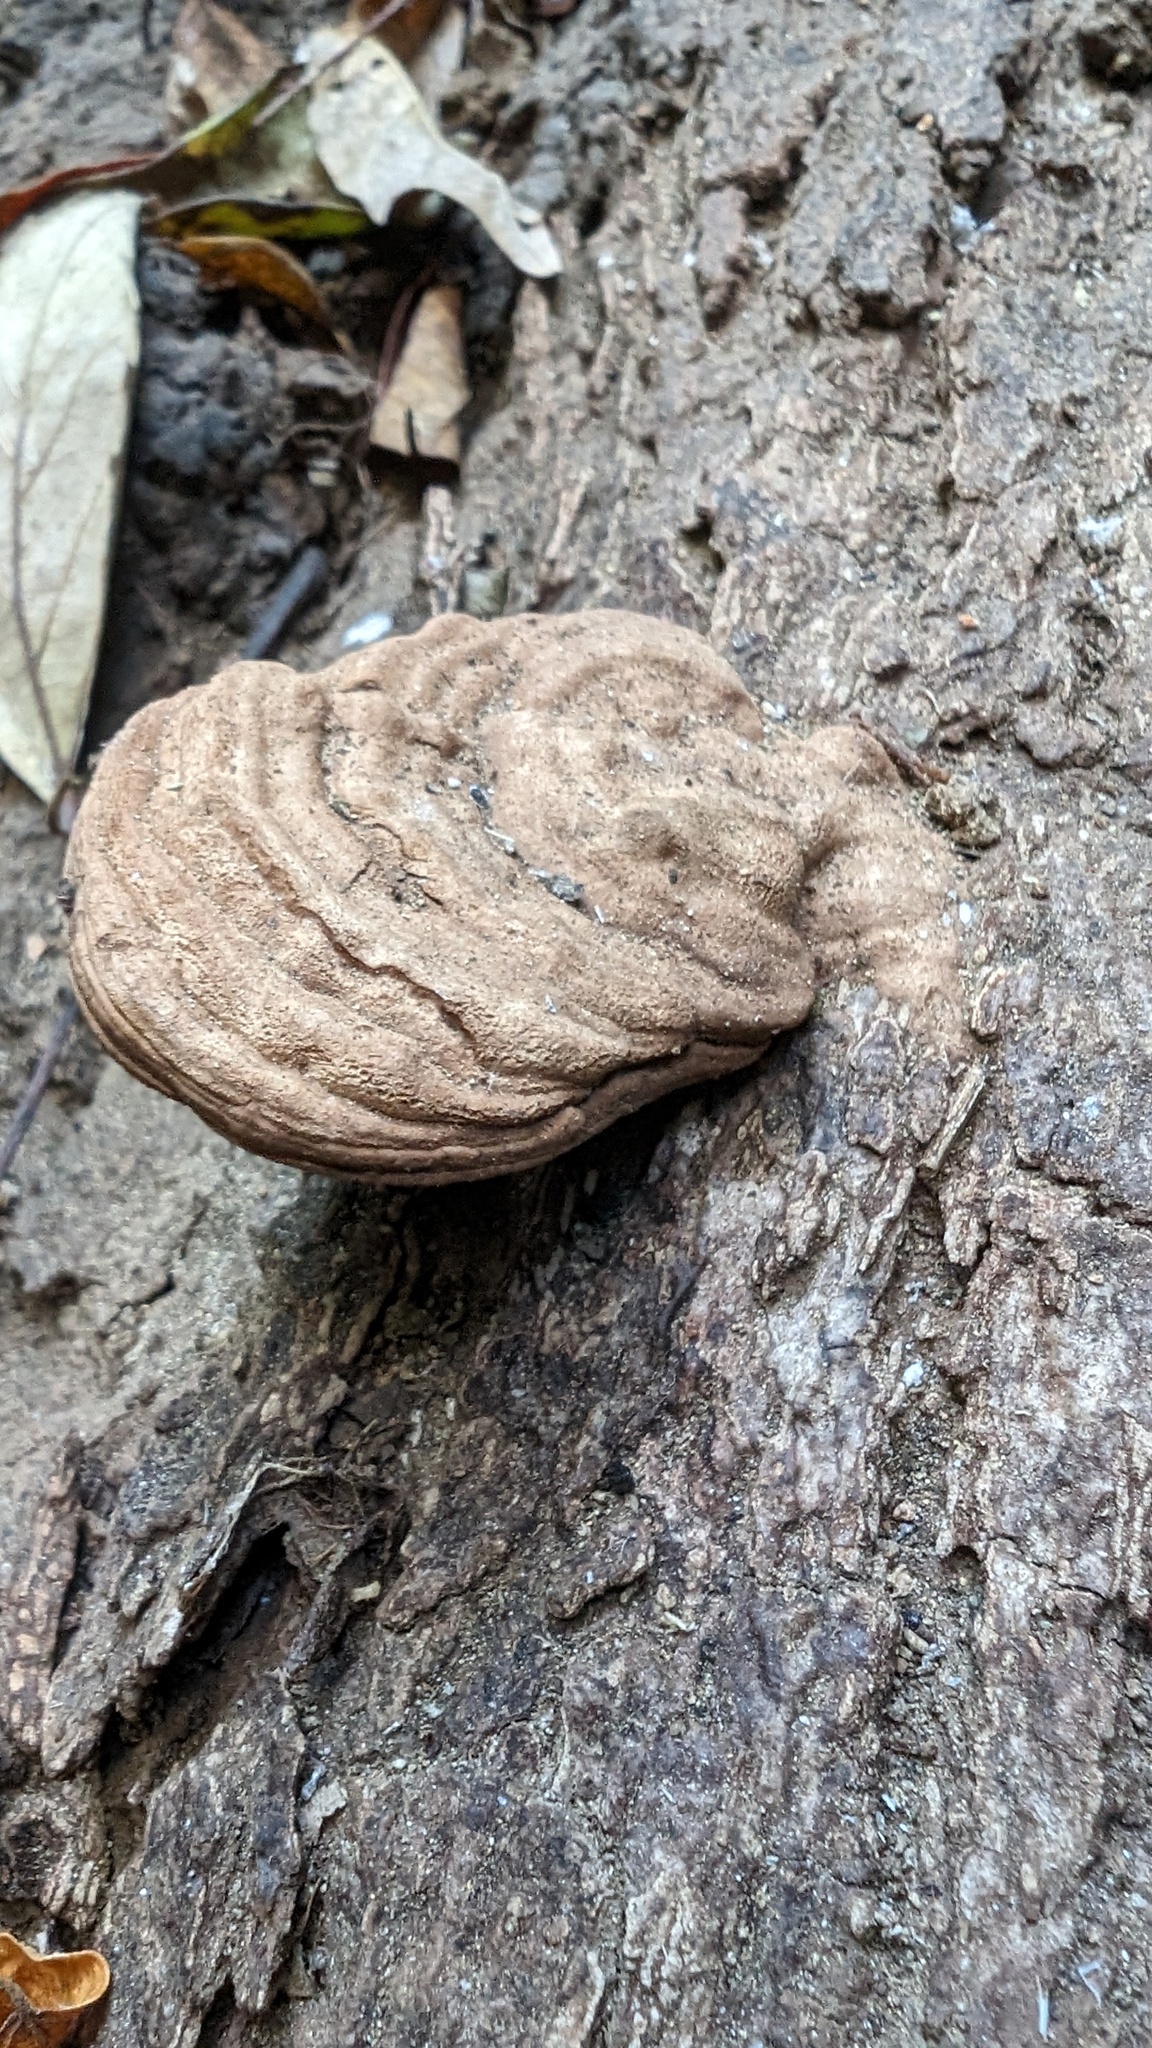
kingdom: Fungi
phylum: Basidiomycota
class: Agaricomycetes
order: Polyporales
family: Polyporaceae
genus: Ganoderma
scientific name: Ganoderma applanatum
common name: Artist's bracket
